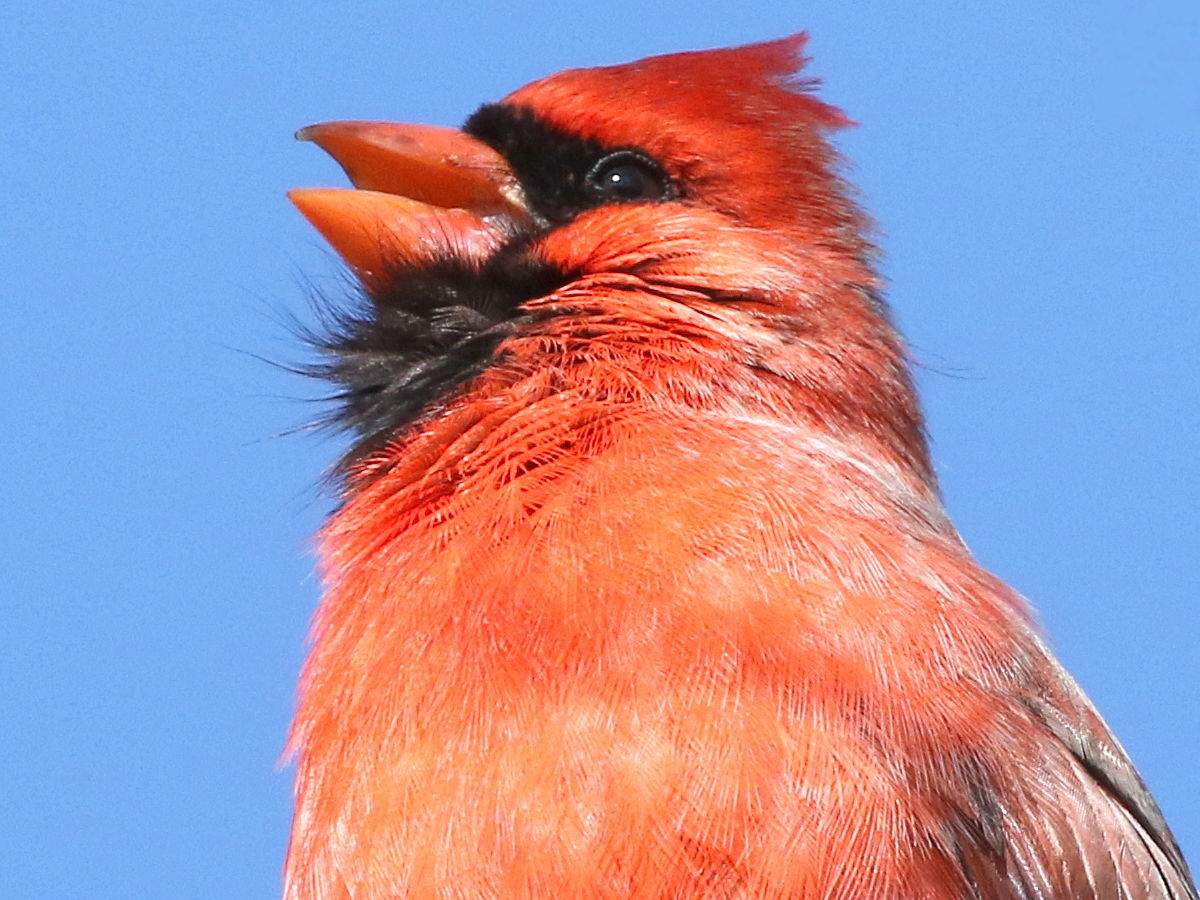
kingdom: Animalia
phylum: Chordata
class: Aves
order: Passeriformes
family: Cardinalidae
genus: Cardinalis
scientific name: Cardinalis cardinalis
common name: Northern cardinal
